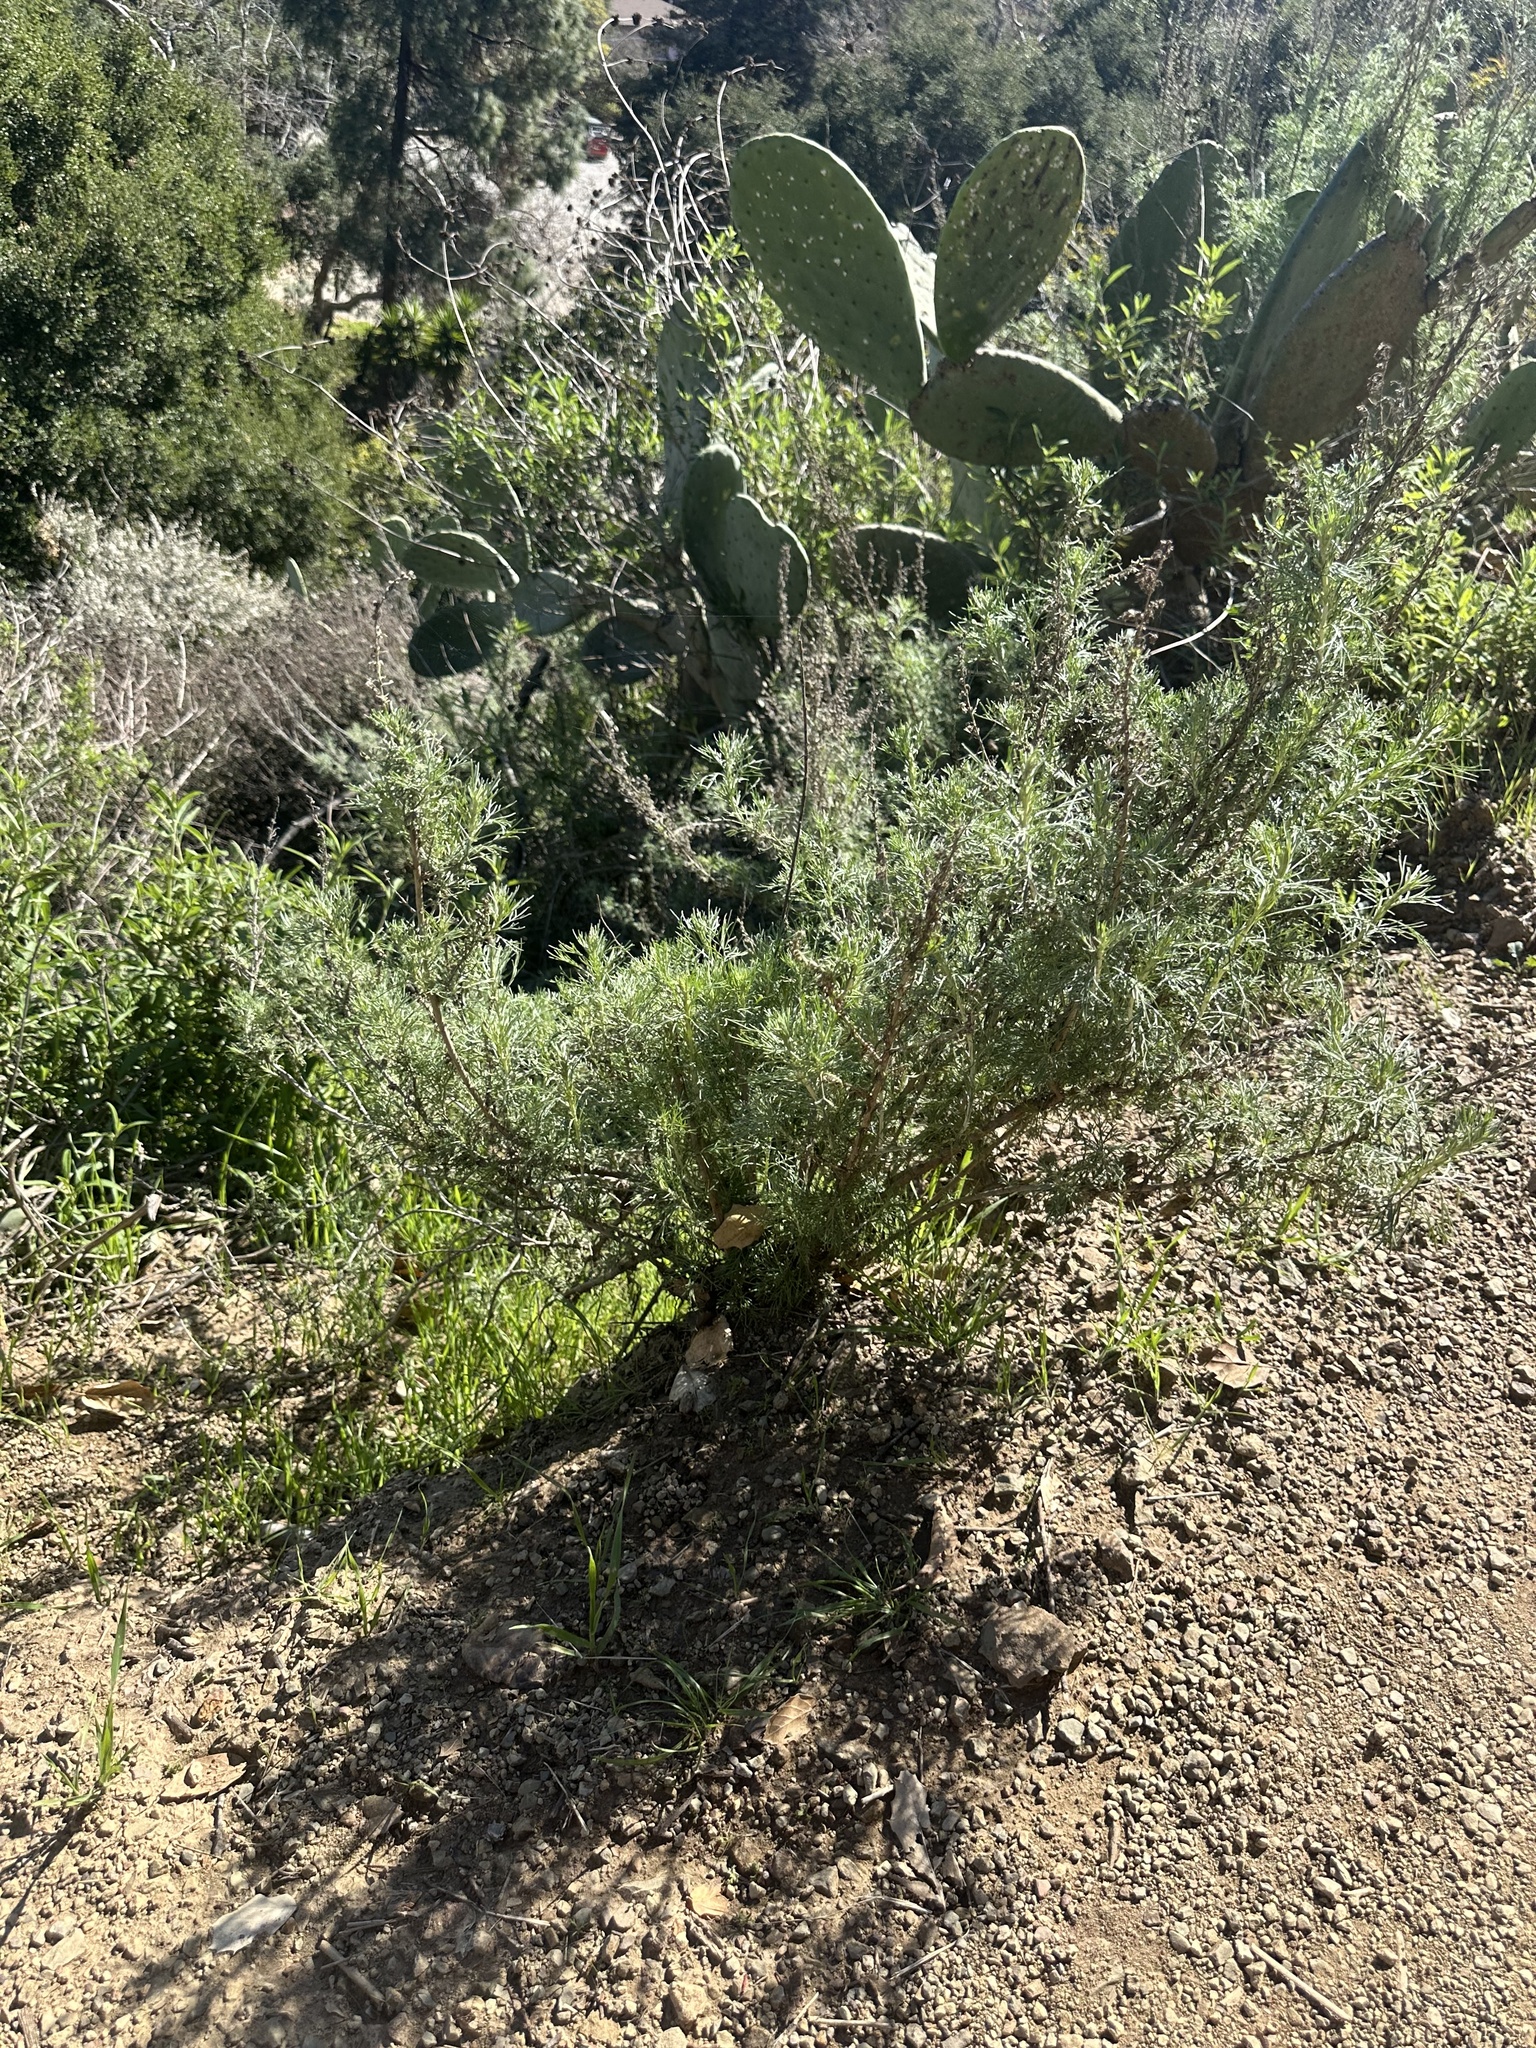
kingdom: Plantae
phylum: Tracheophyta
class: Magnoliopsida
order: Asterales
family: Asteraceae
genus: Artemisia
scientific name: Artemisia californica
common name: California sagebrush
